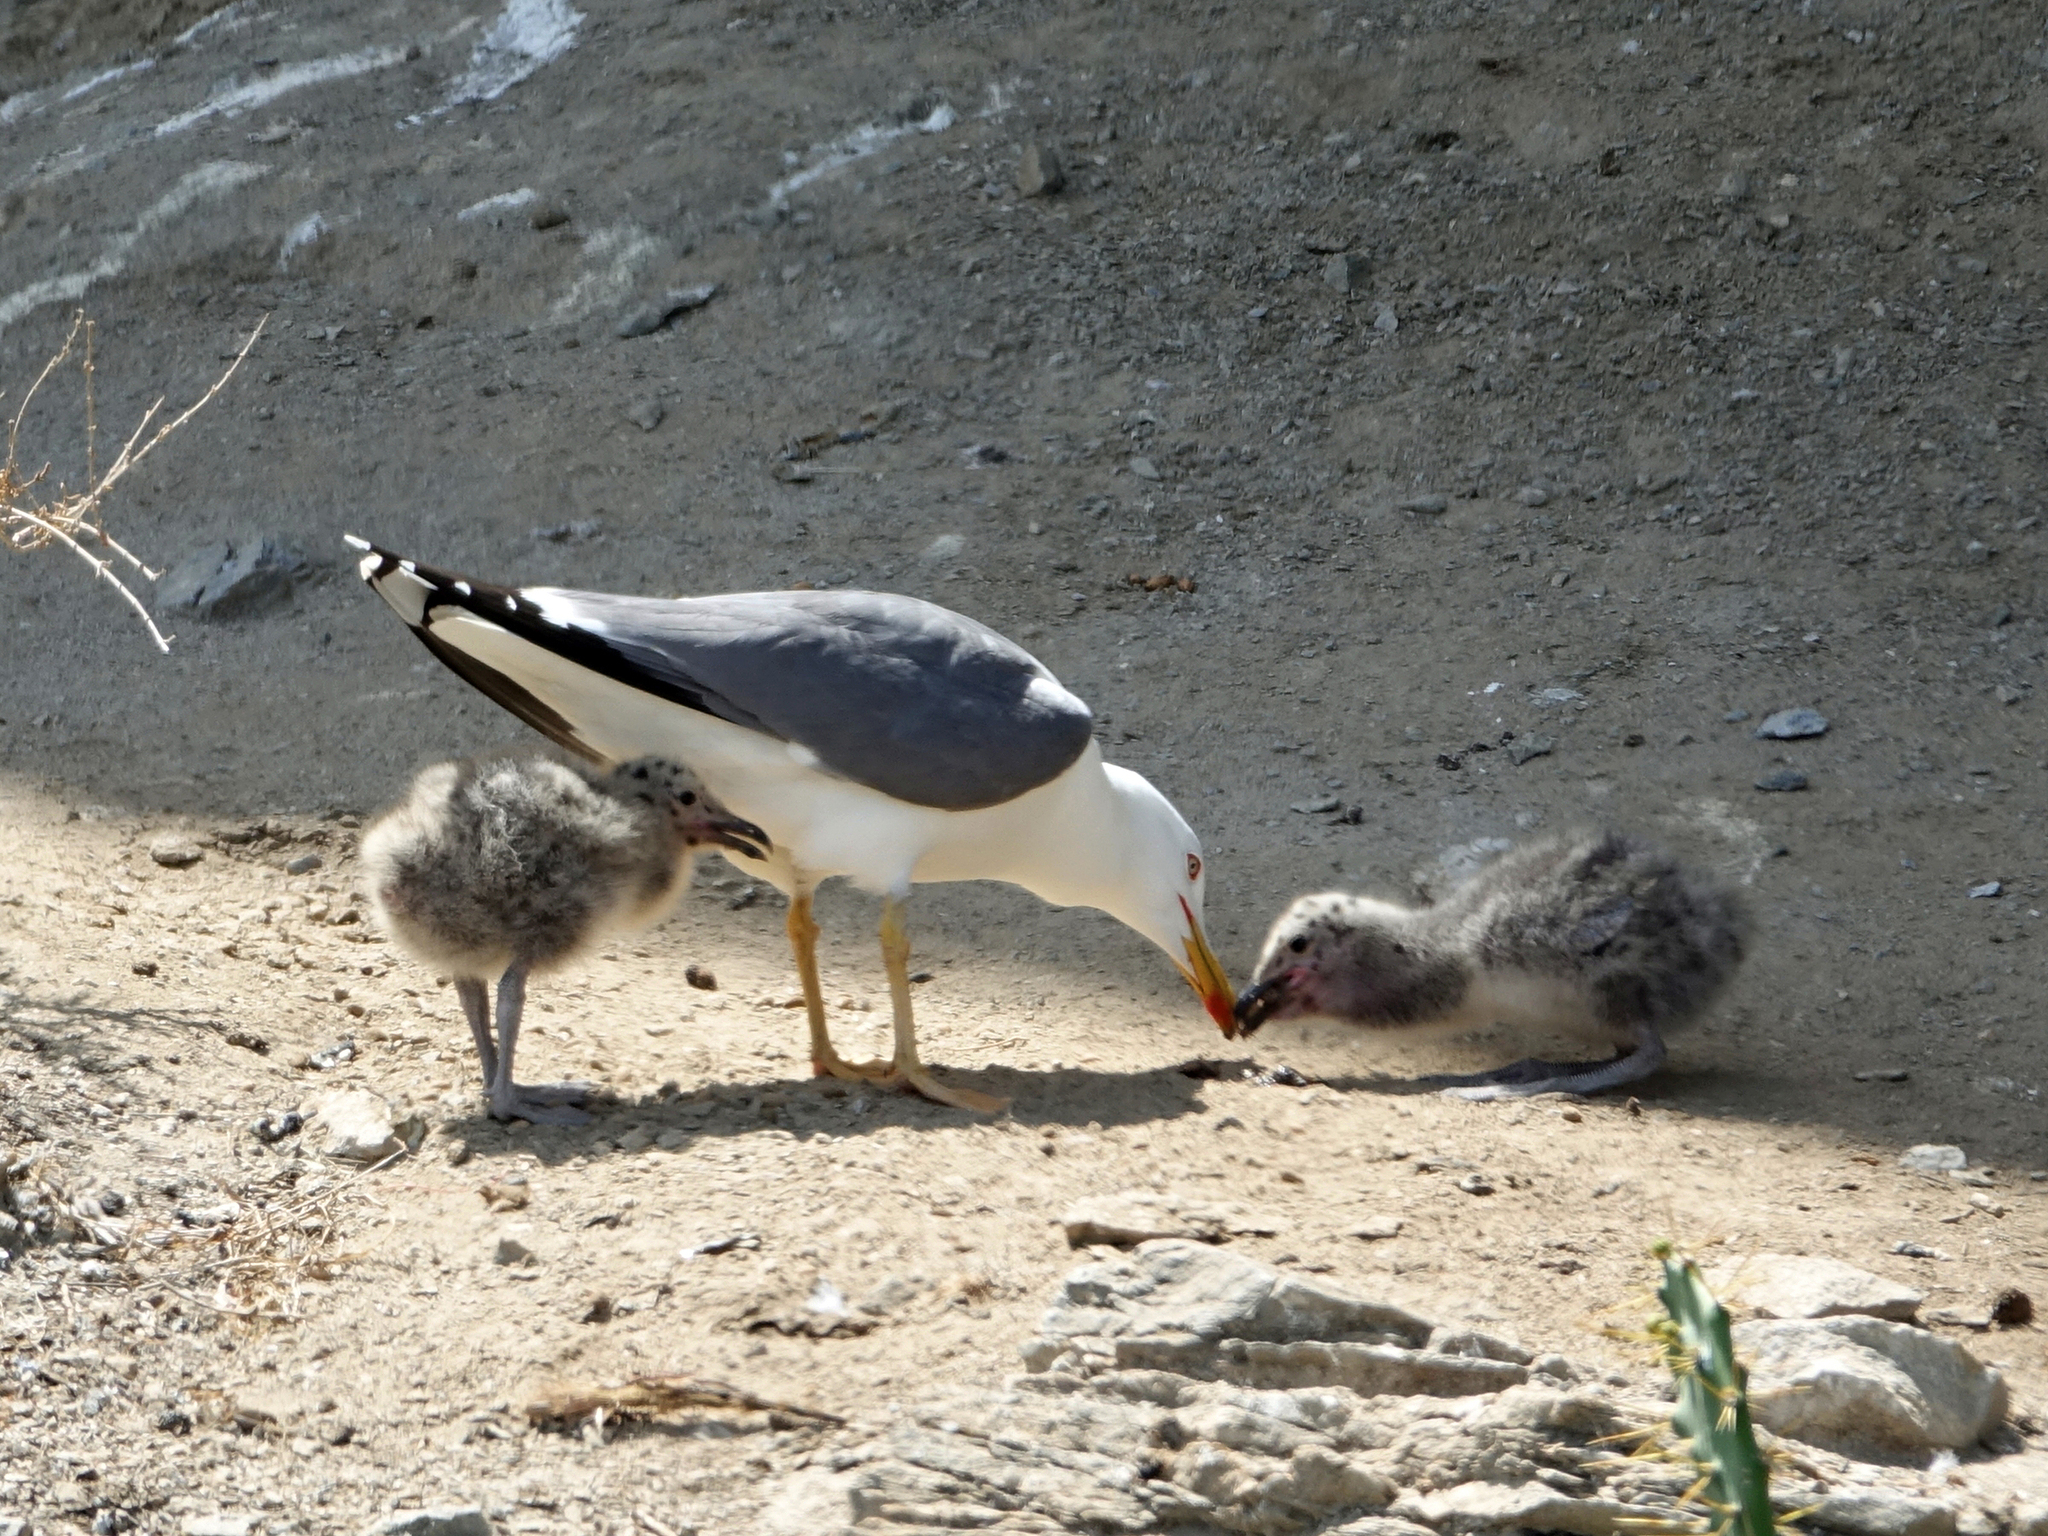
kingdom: Animalia
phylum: Chordata
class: Aves
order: Charadriiformes
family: Laridae
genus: Larus
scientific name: Larus michahellis
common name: Yellow-legged gull
